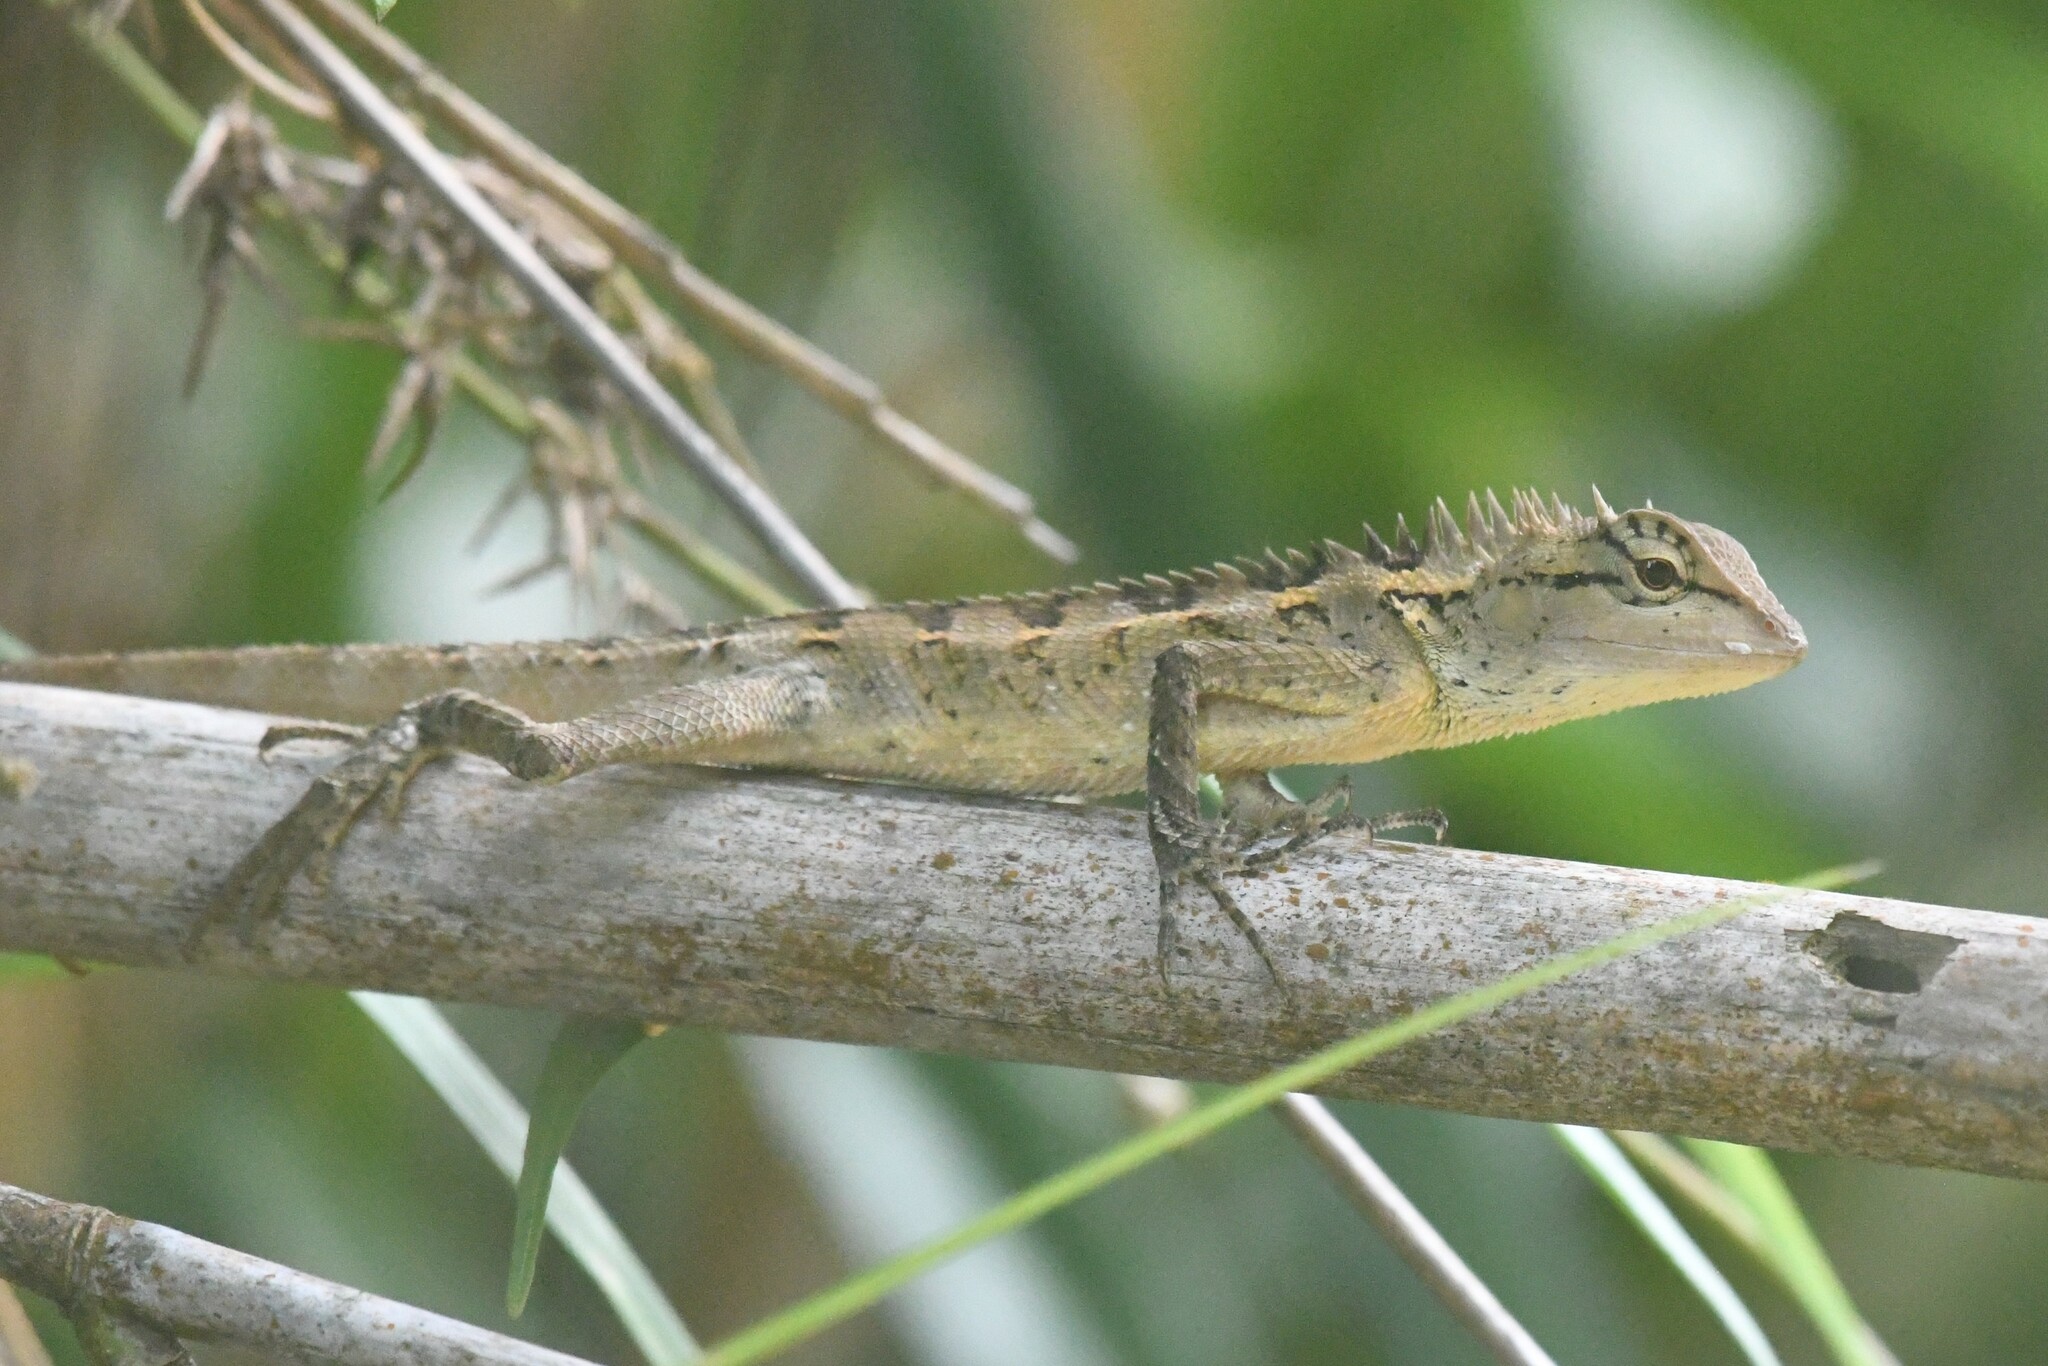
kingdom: Animalia
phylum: Chordata
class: Squamata
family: Agamidae
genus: Calotes
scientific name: Calotes emma
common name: Thailand bloodsucker
